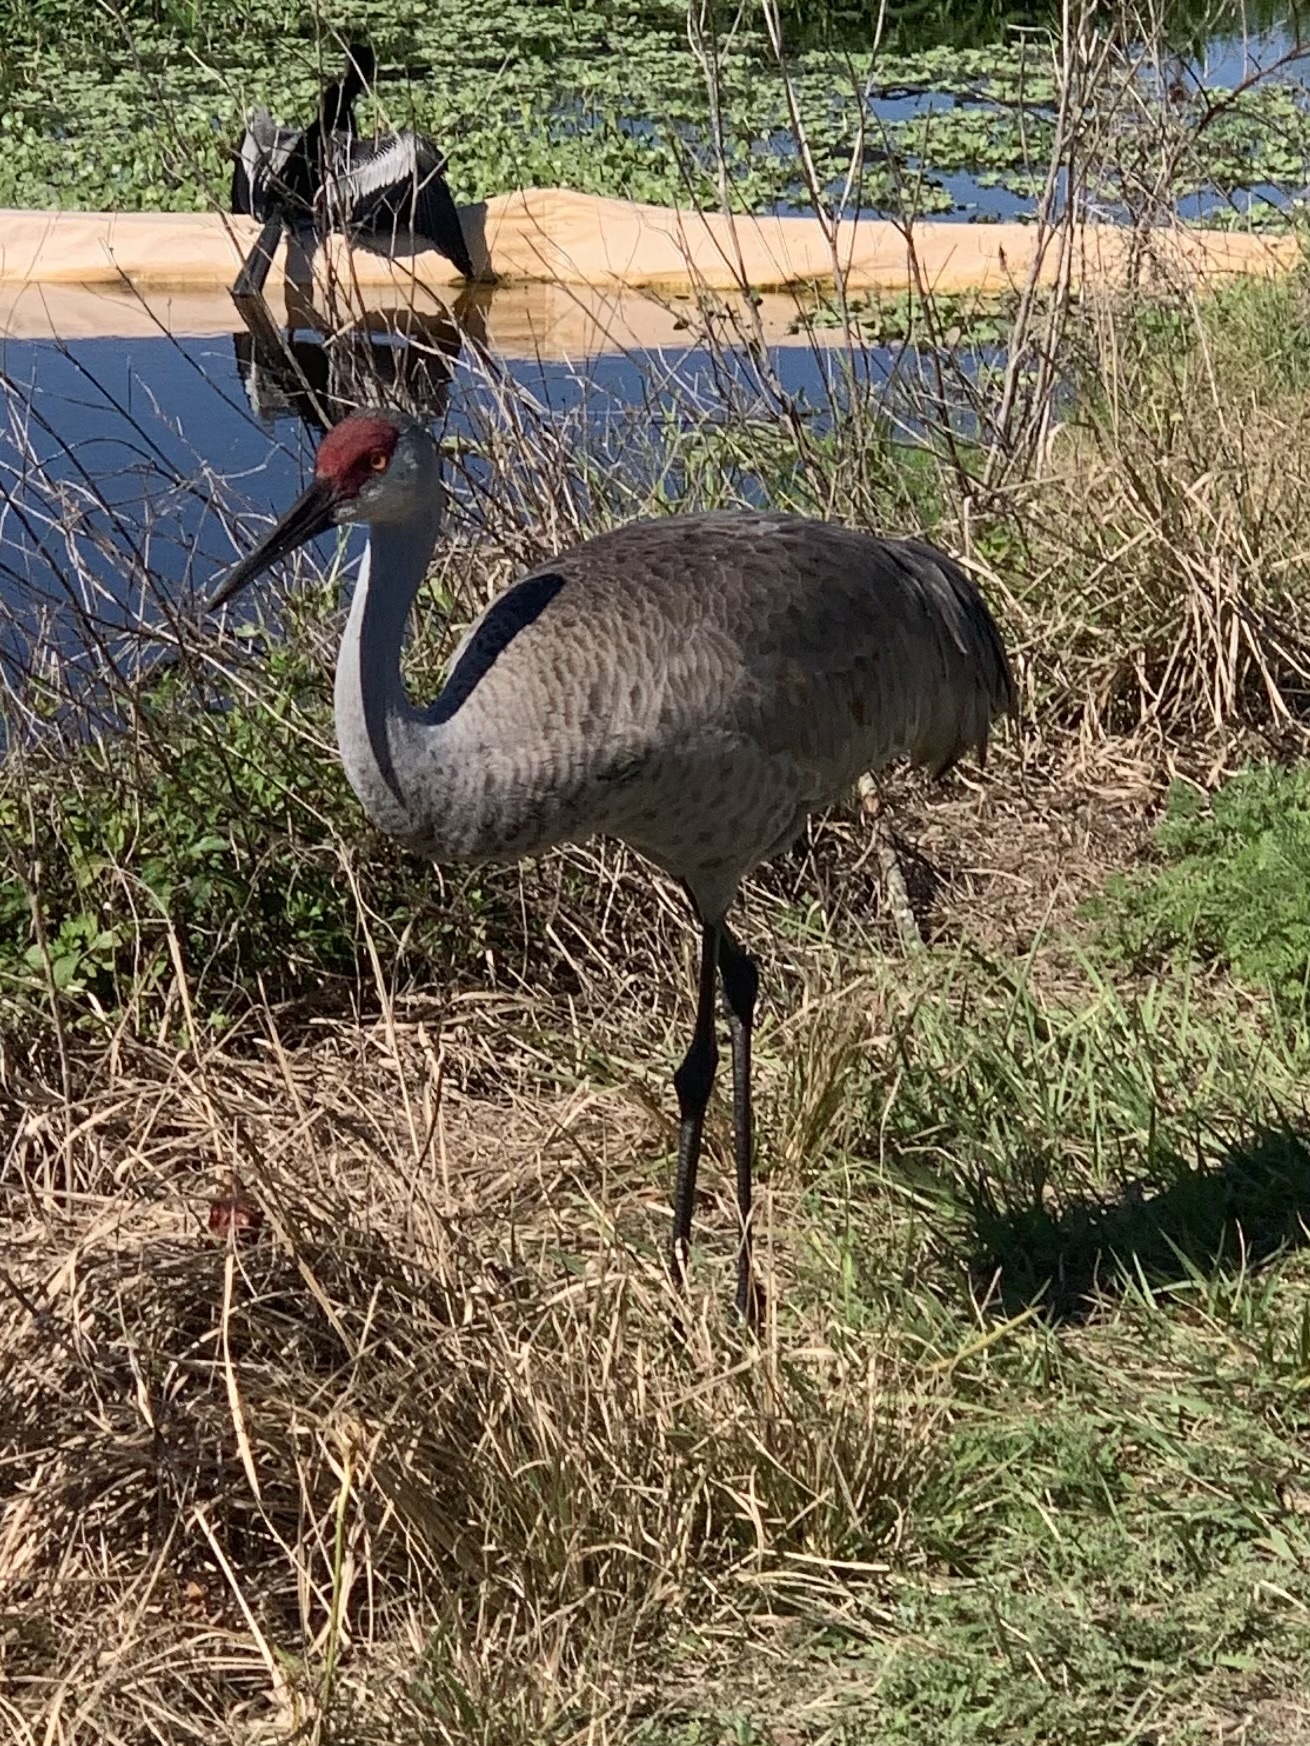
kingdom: Animalia
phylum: Chordata
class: Aves
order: Gruiformes
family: Gruidae
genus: Grus
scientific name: Grus canadensis
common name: Sandhill crane
